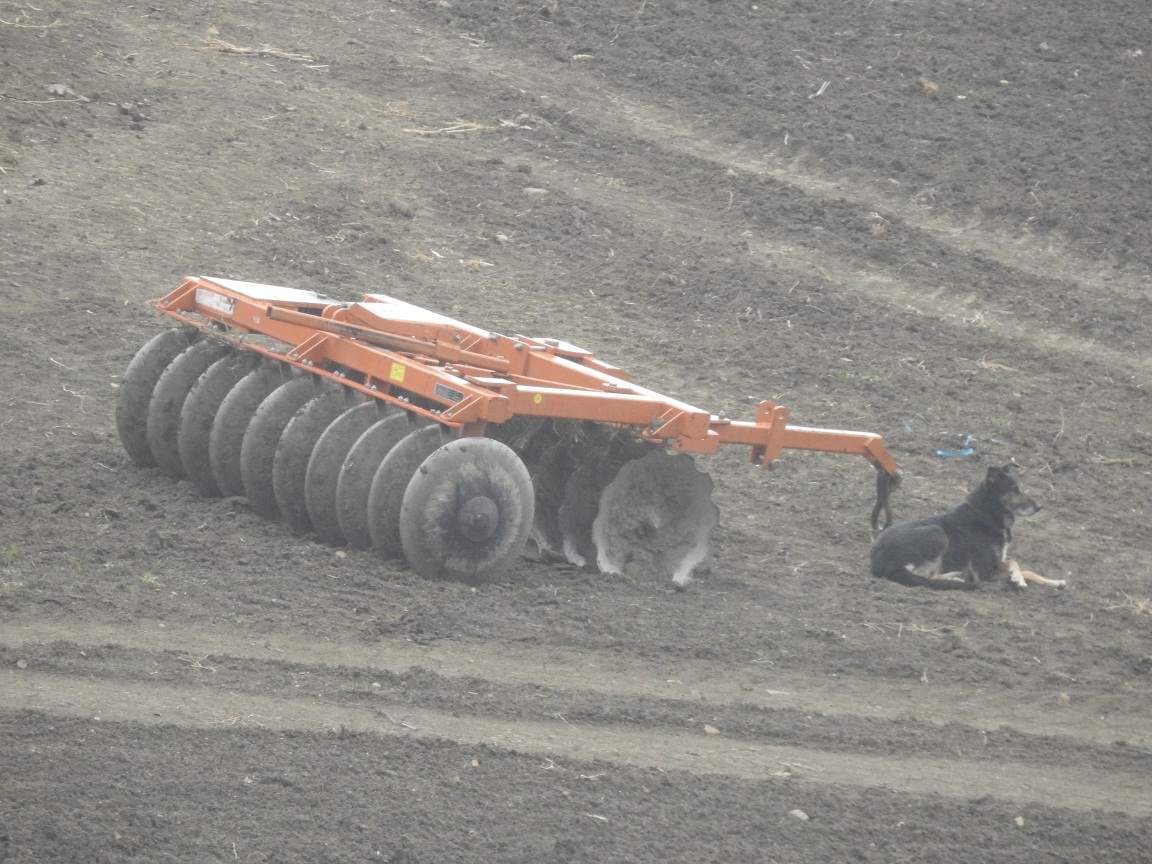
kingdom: Animalia
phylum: Chordata
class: Mammalia
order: Carnivora
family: Canidae
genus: Canis
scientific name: Canis lupus
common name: Gray wolf
